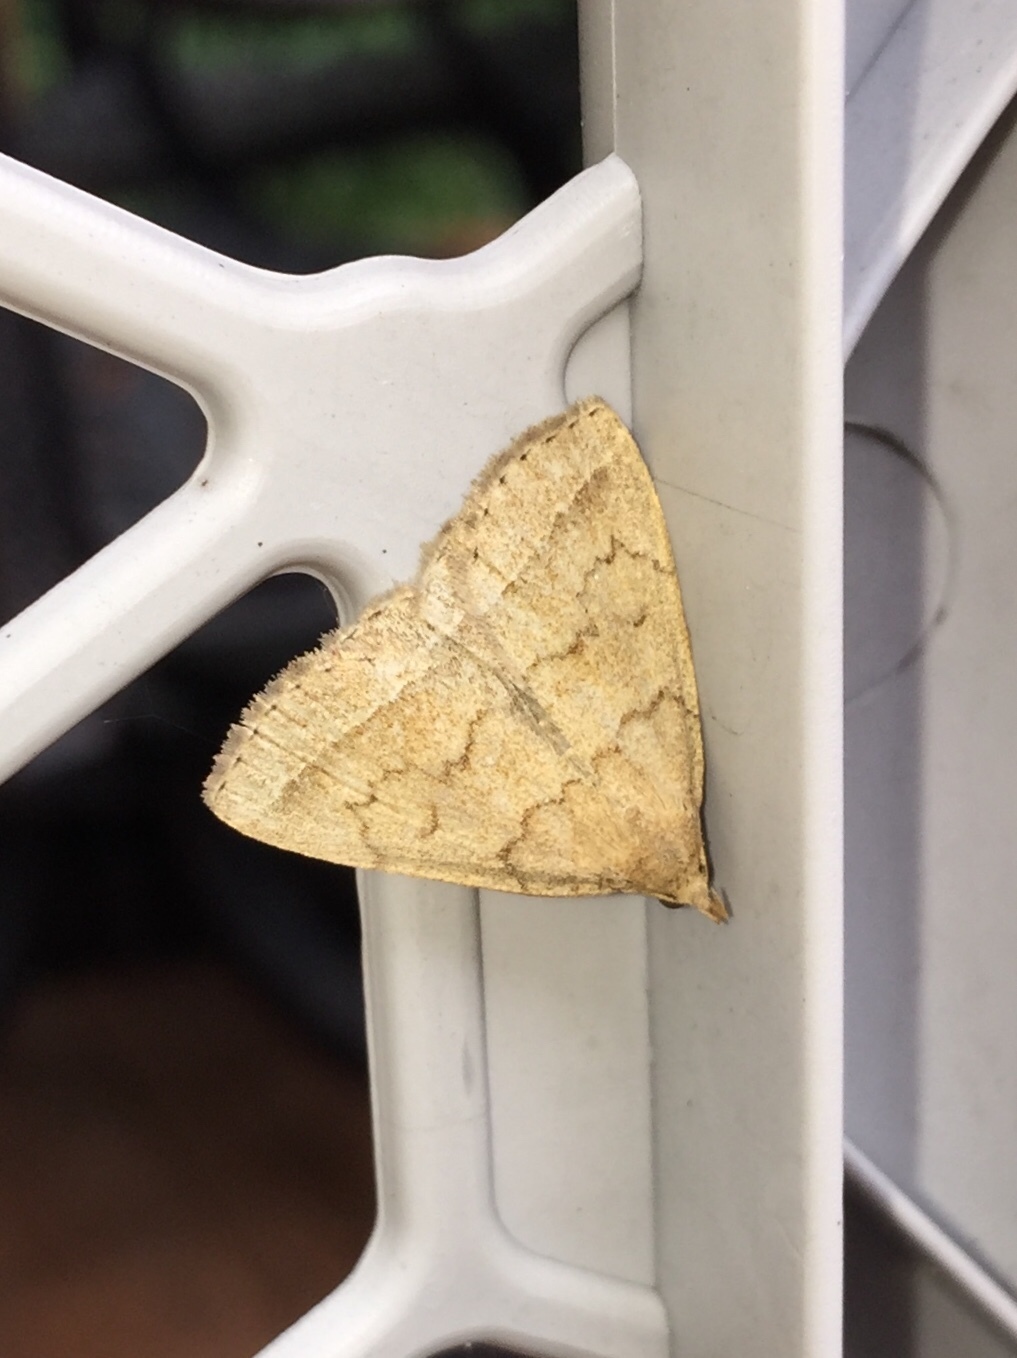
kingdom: Animalia
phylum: Arthropoda
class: Insecta
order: Lepidoptera
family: Erebidae
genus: Zanclognatha
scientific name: Zanclognatha jacchusalis
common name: Yellowish zanclognatha
